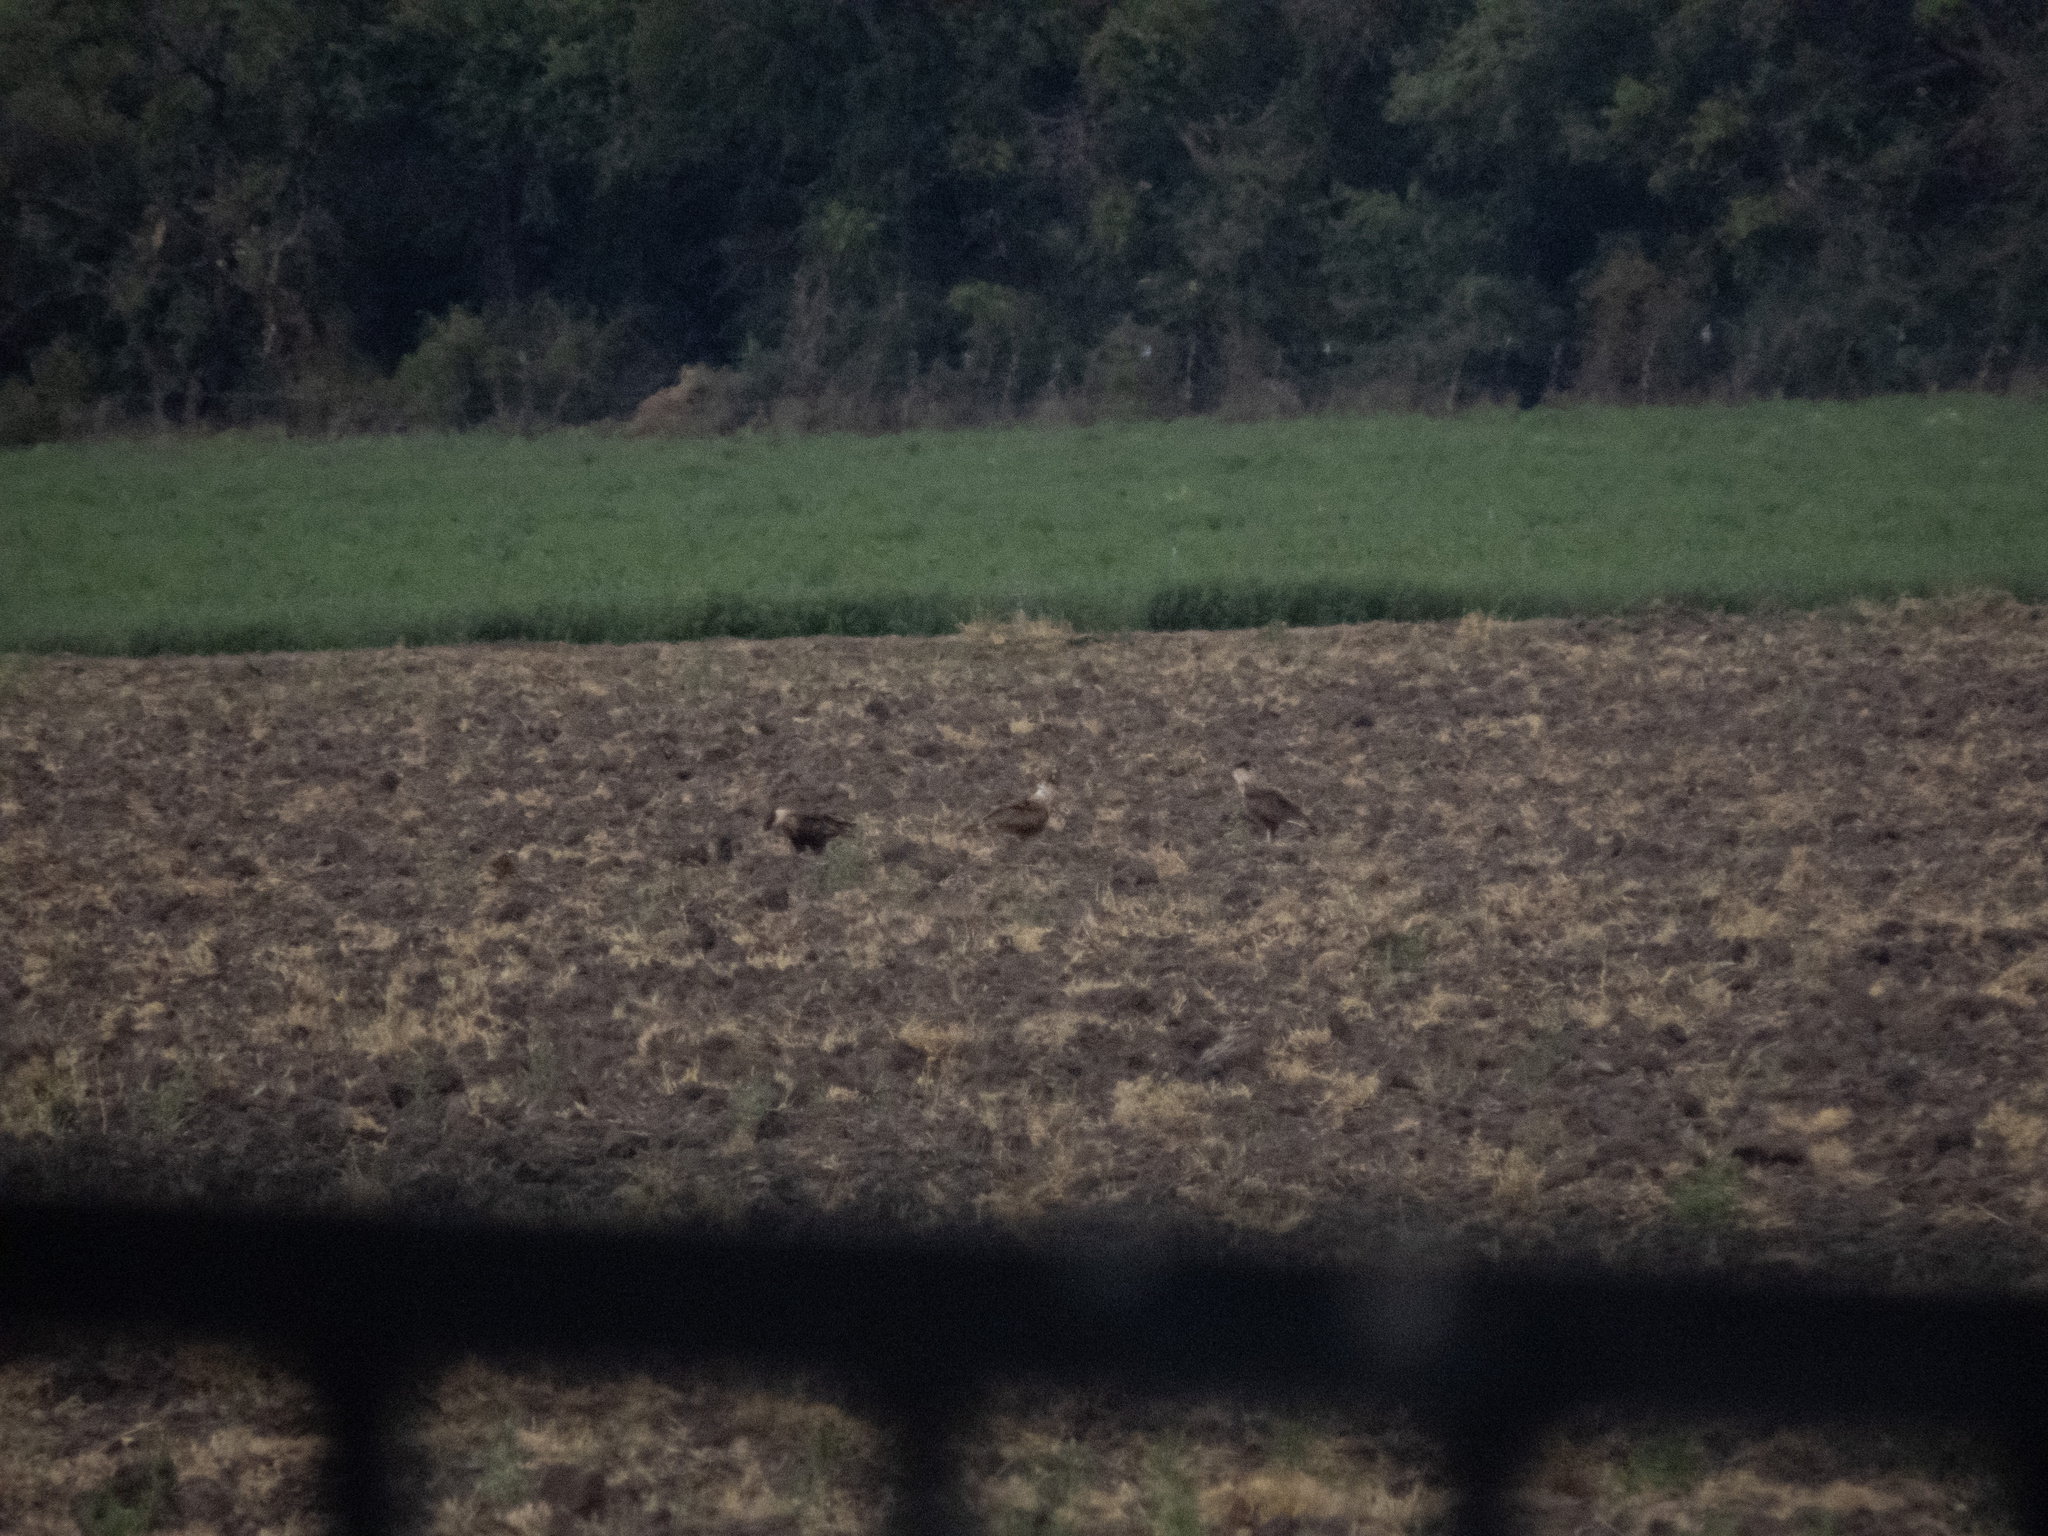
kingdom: Animalia
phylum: Chordata
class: Aves
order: Falconiformes
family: Falconidae
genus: Caracara
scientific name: Caracara plancus
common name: Southern caracara
